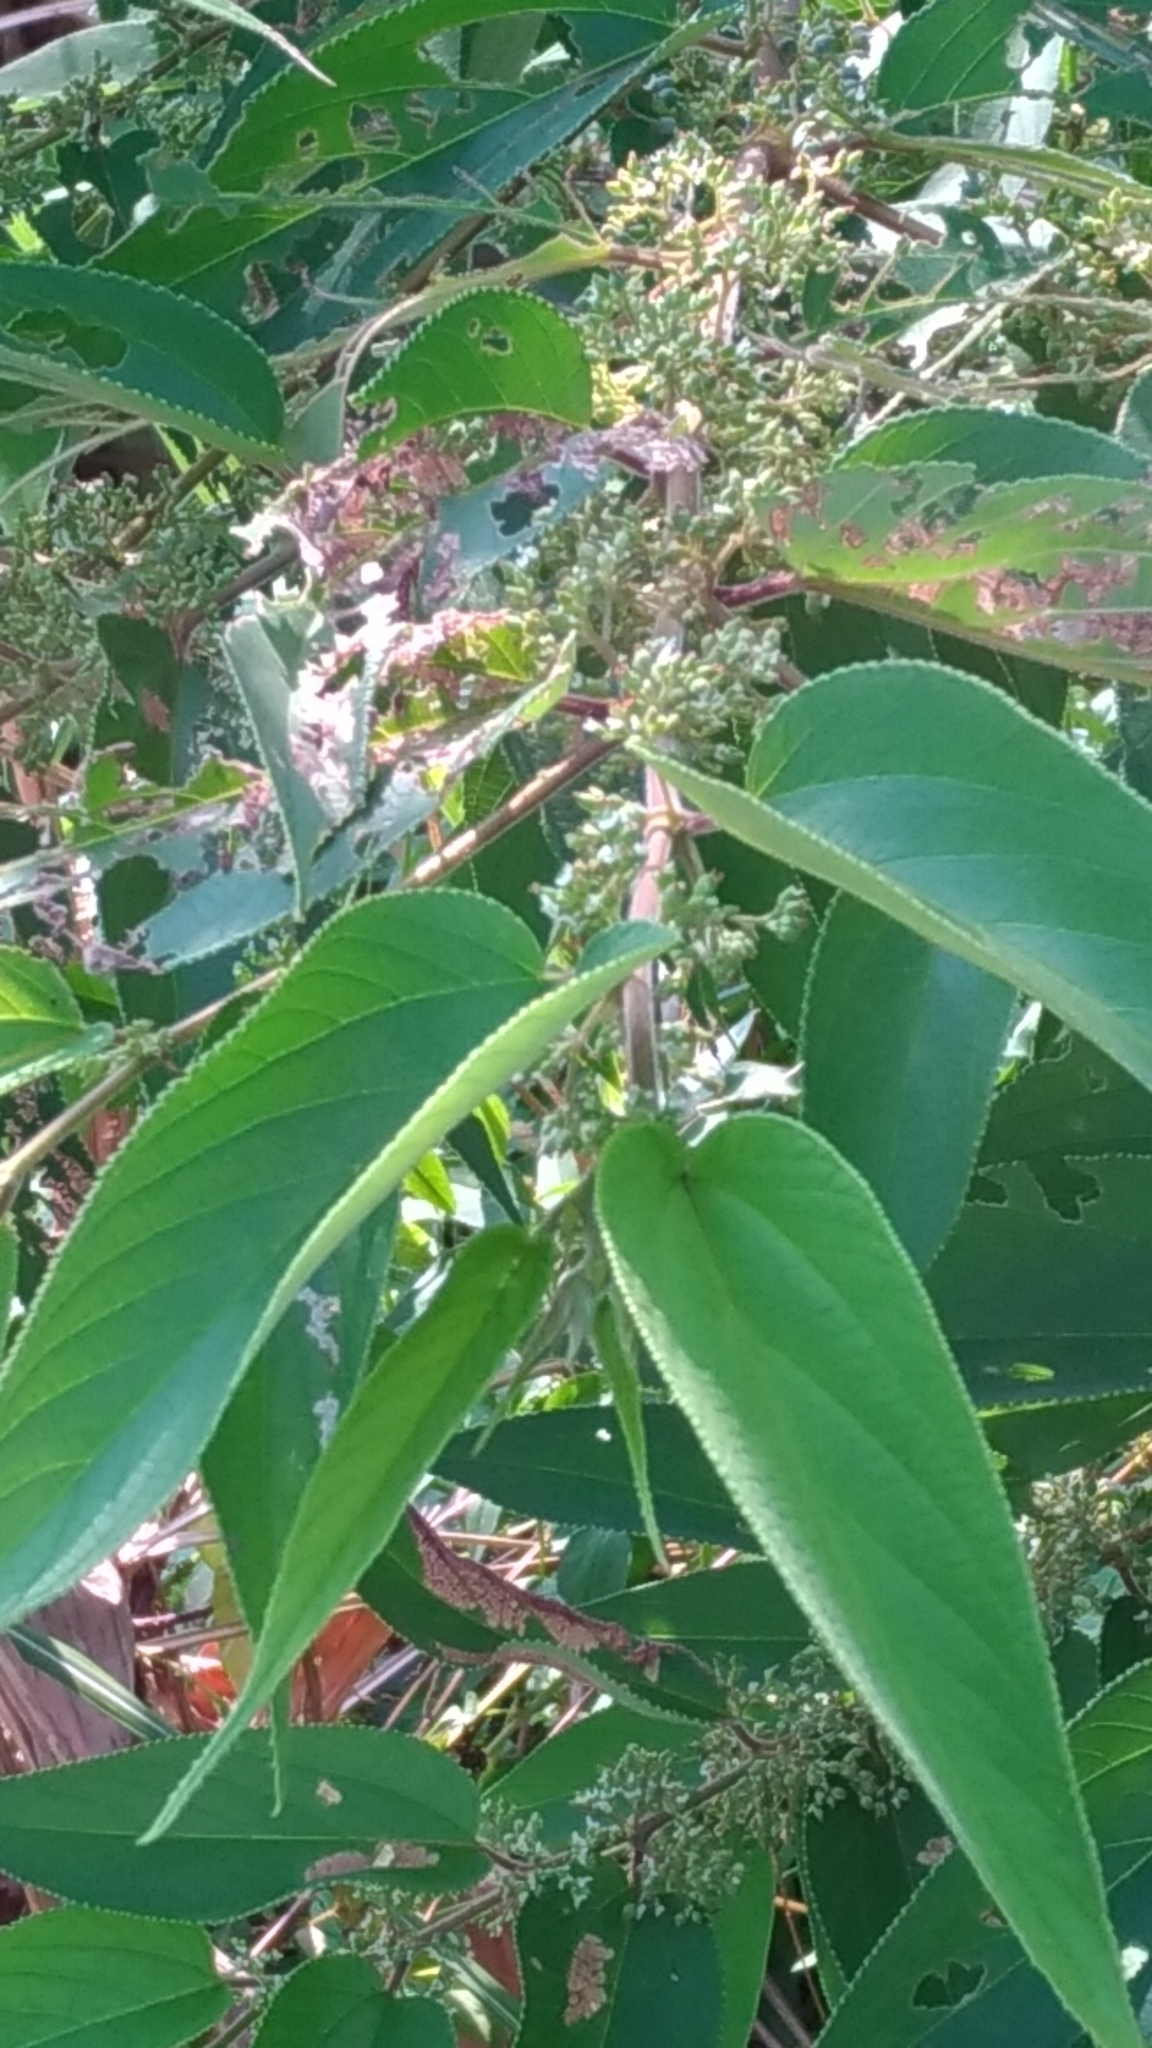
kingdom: Plantae
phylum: Tracheophyta
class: Magnoliopsida
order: Rosales
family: Cannabaceae
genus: Trema
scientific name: Trema orientale
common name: Indian charcoal tree
